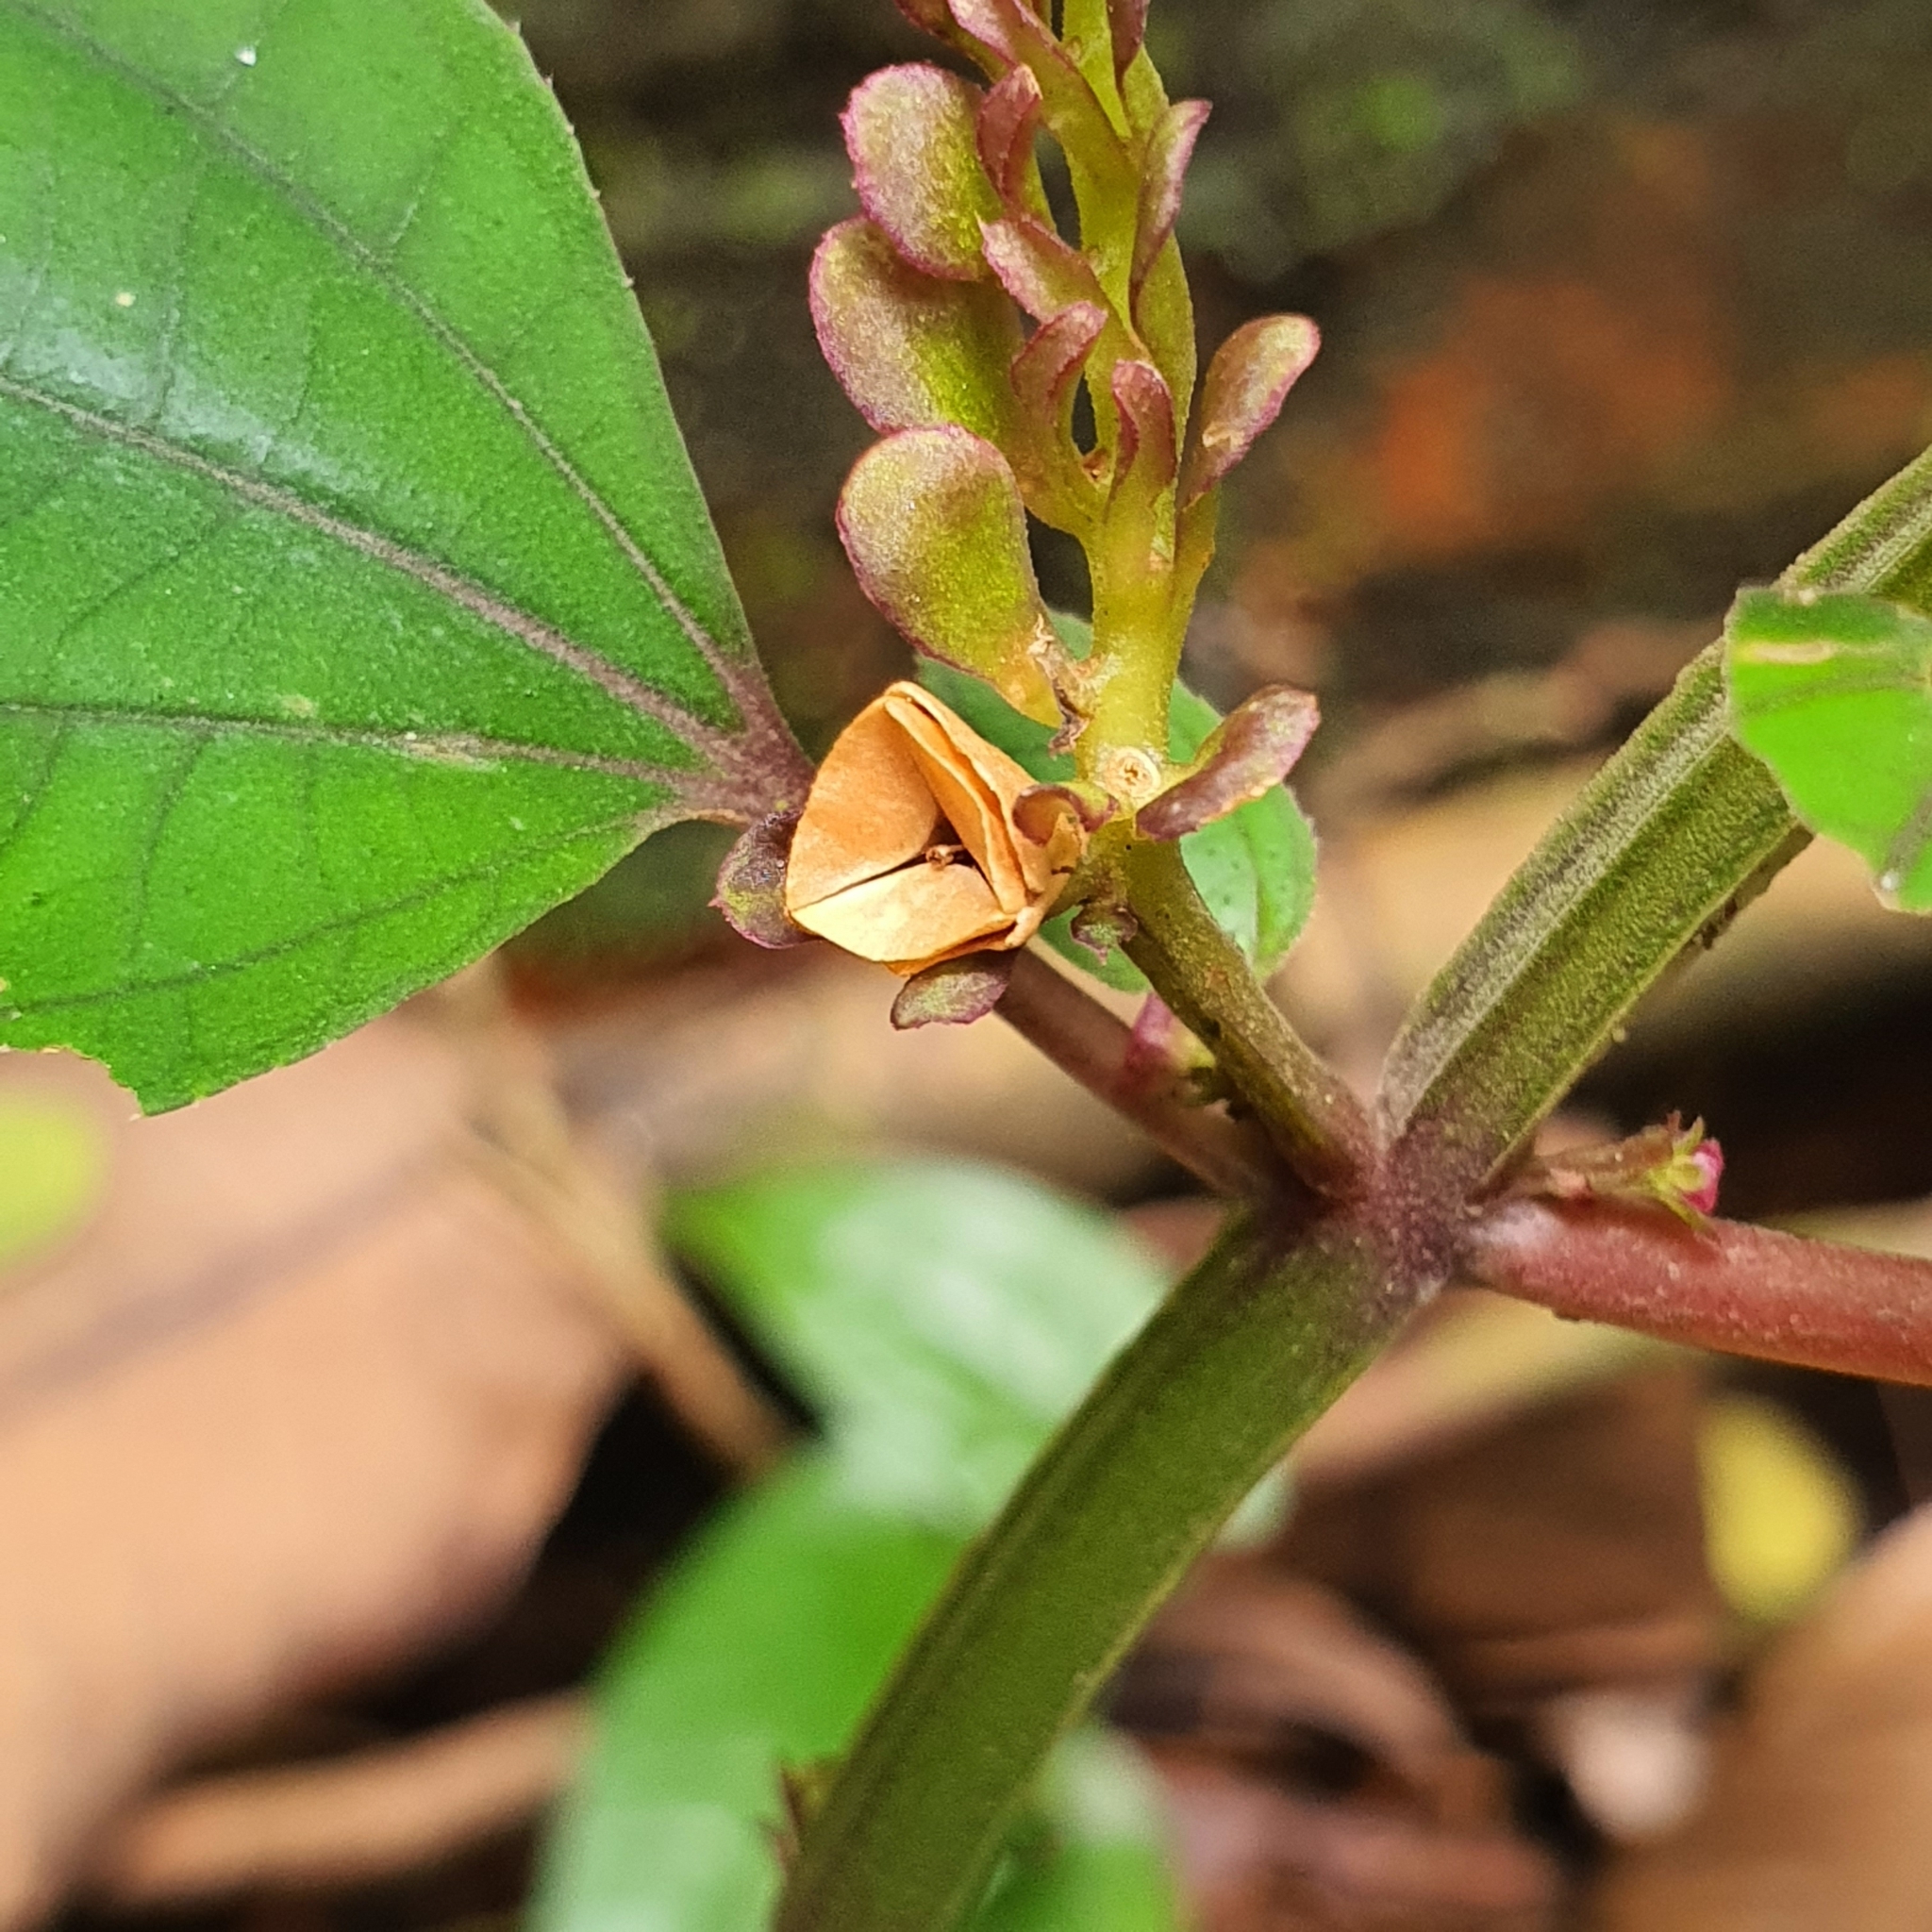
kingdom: Plantae
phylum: Tracheophyta
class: Magnoliopsida
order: Myrtales
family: Melastomataceae
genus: Sonerila
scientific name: Sonerila obliqua
